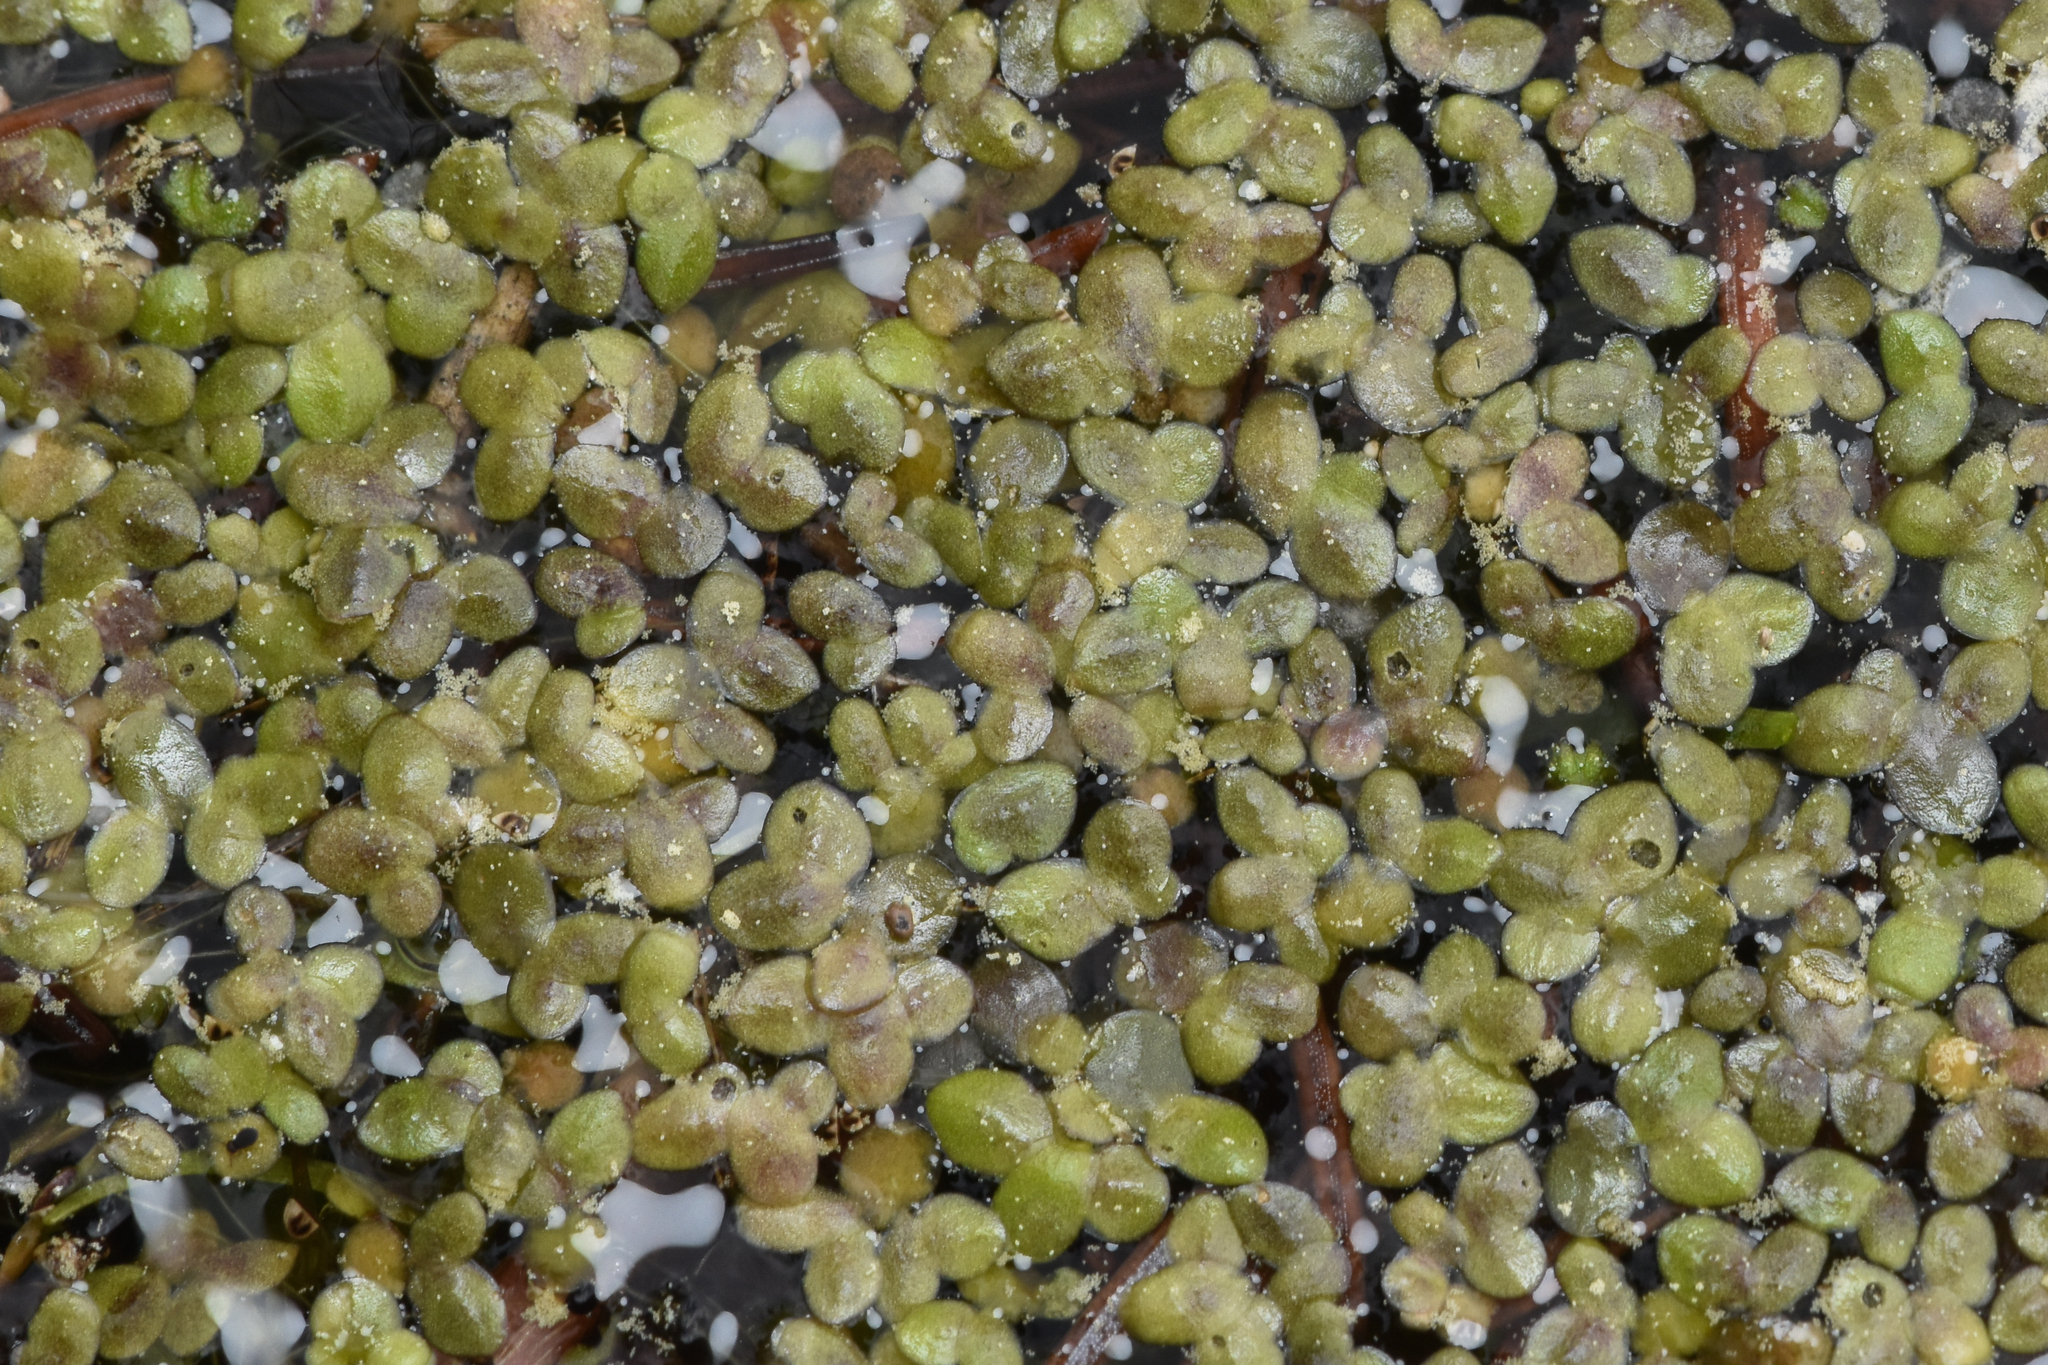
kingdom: Plantae
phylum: Tracheophyta
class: Liliopsida
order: Alismatales
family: Araceae
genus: Lemna
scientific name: Lemna minor
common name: Common duckweed
